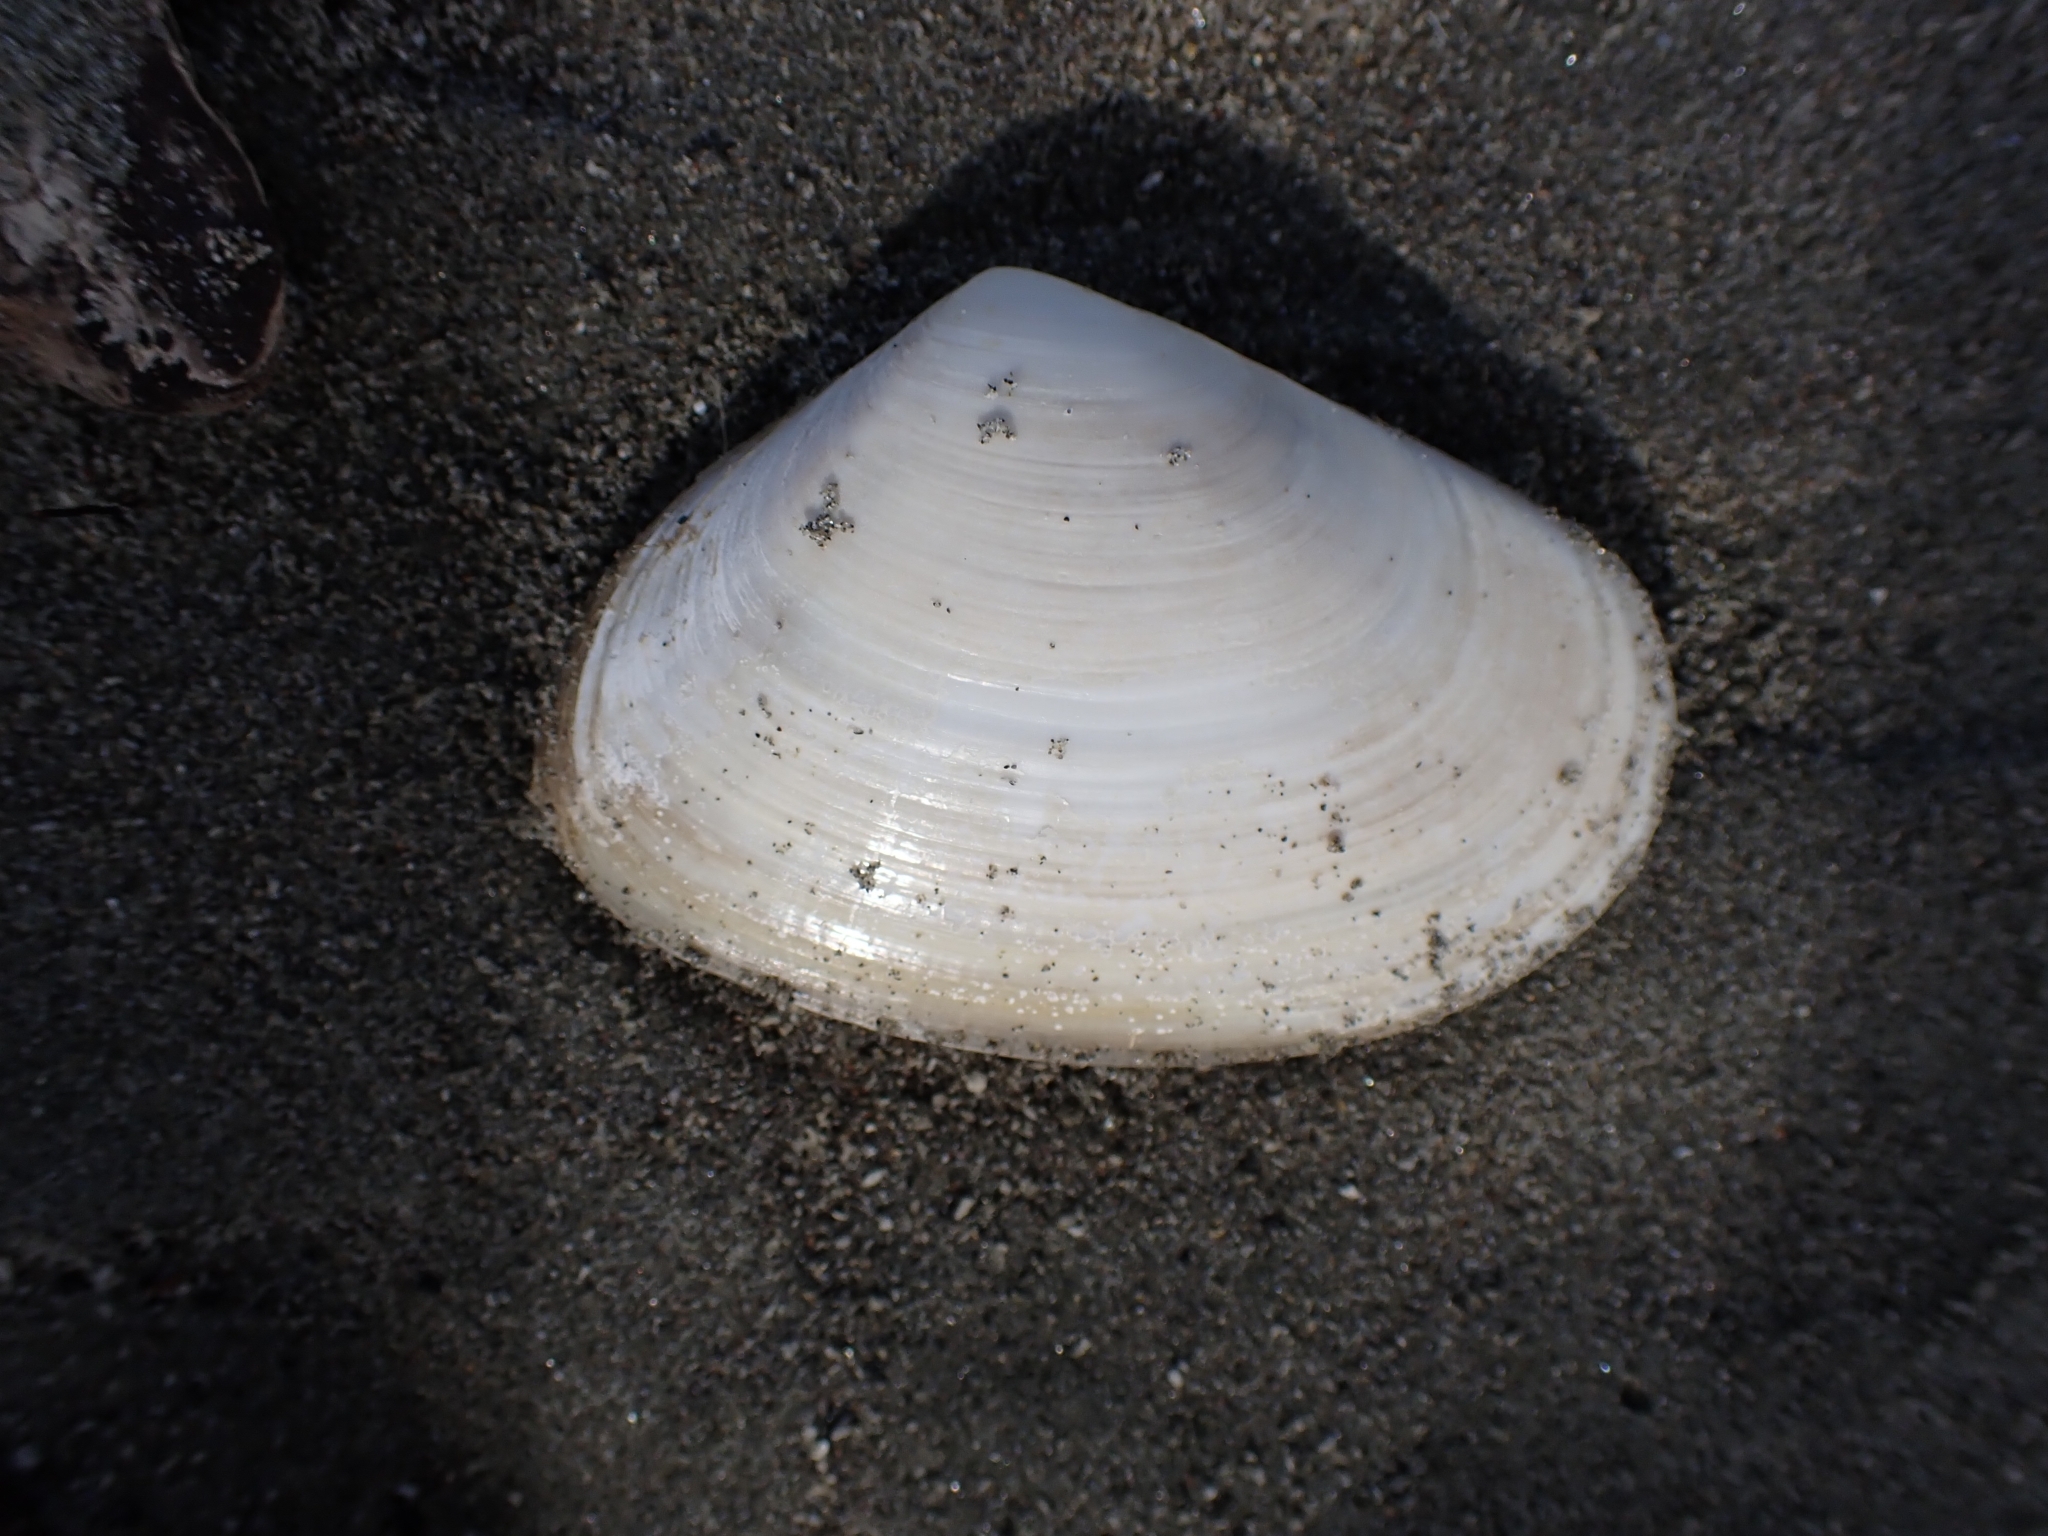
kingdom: Animalia
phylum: Mollusca
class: Bivalvia
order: Venerida
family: Mesodesmatidae
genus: Paphies
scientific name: Paphies donacina
